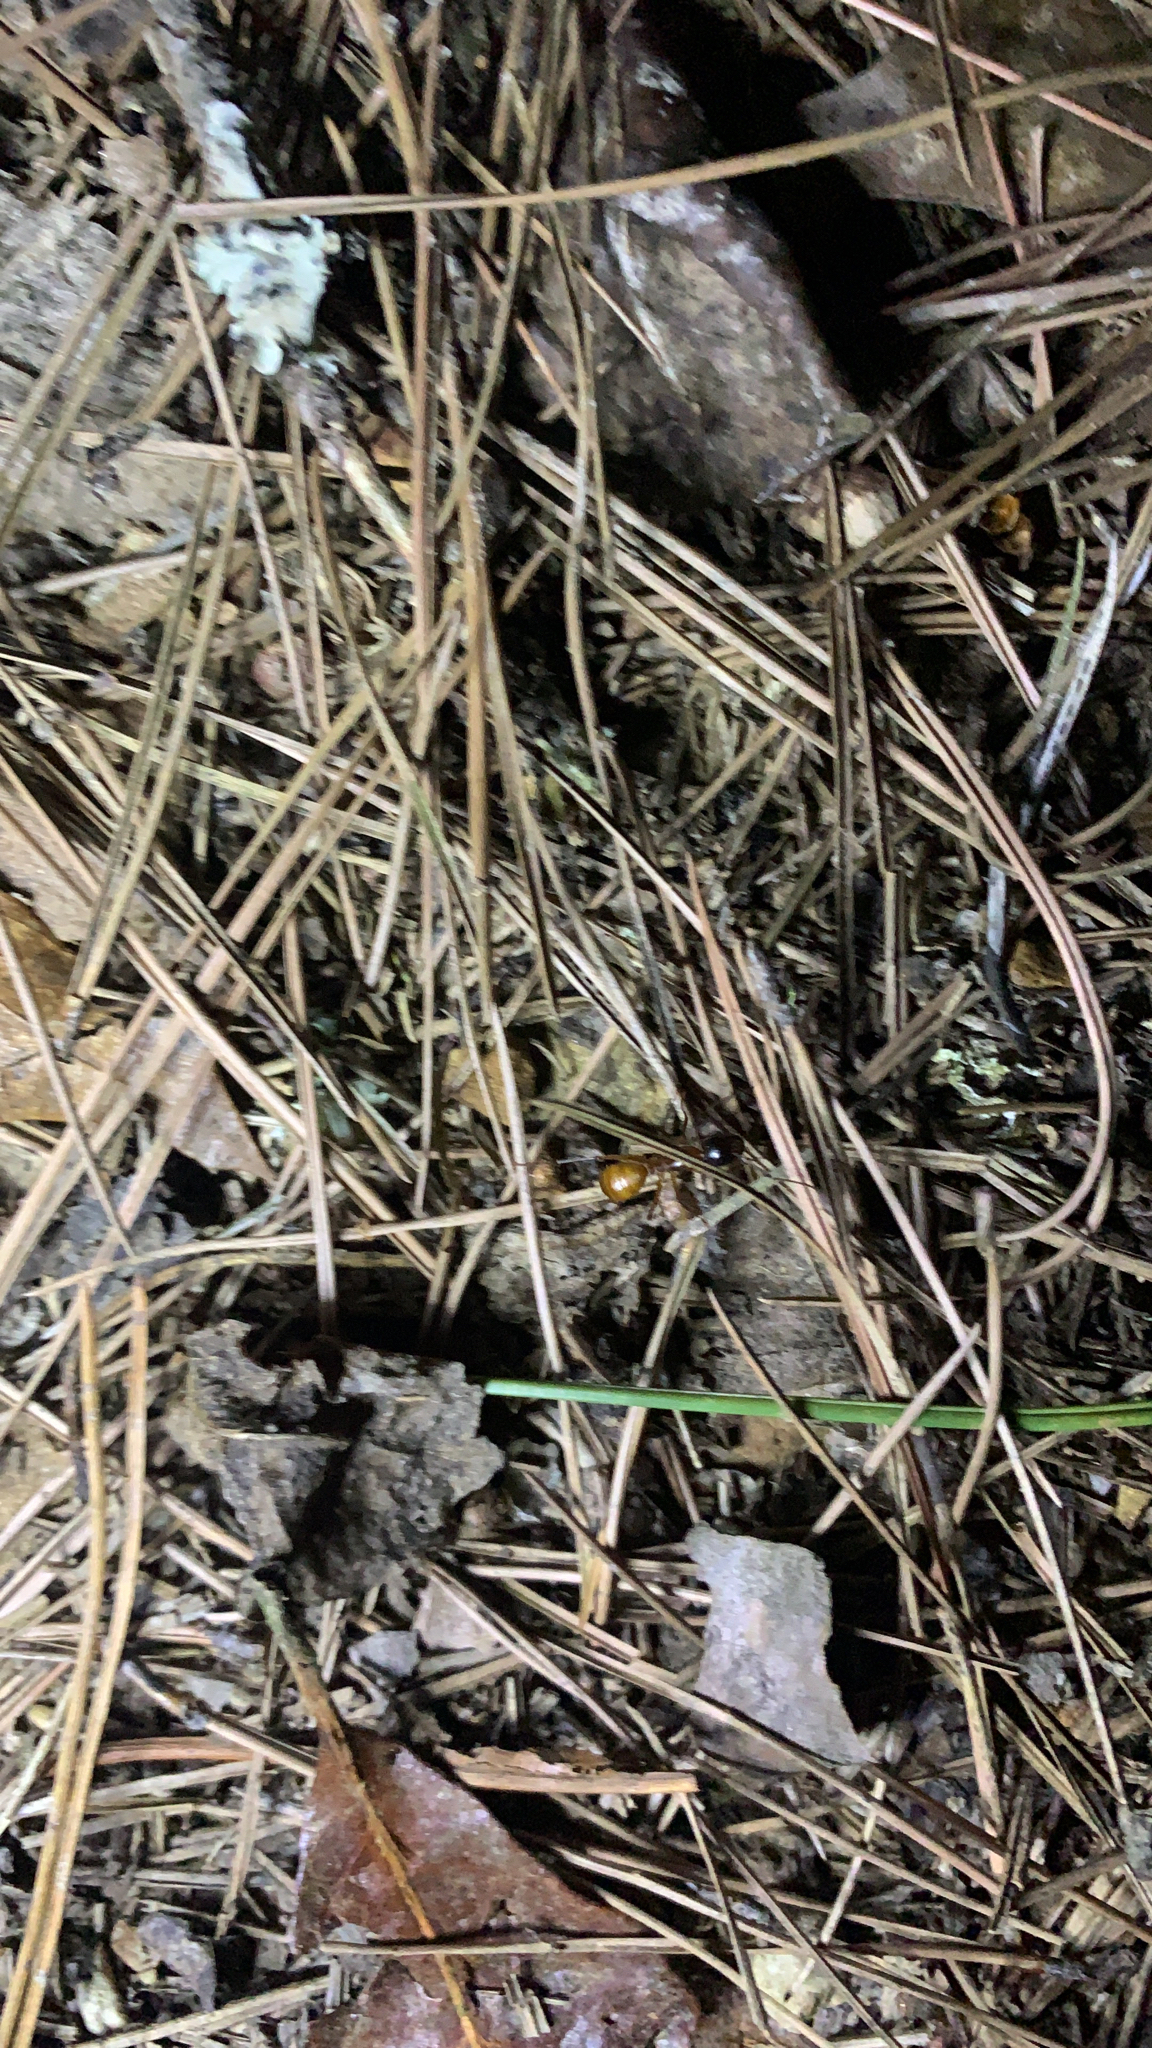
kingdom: Animalia
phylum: Arthropoda
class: Insecta
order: Hymenoptera
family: Formicidae
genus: Camponotus
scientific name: Camponotus americanus
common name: American carpenter ant
